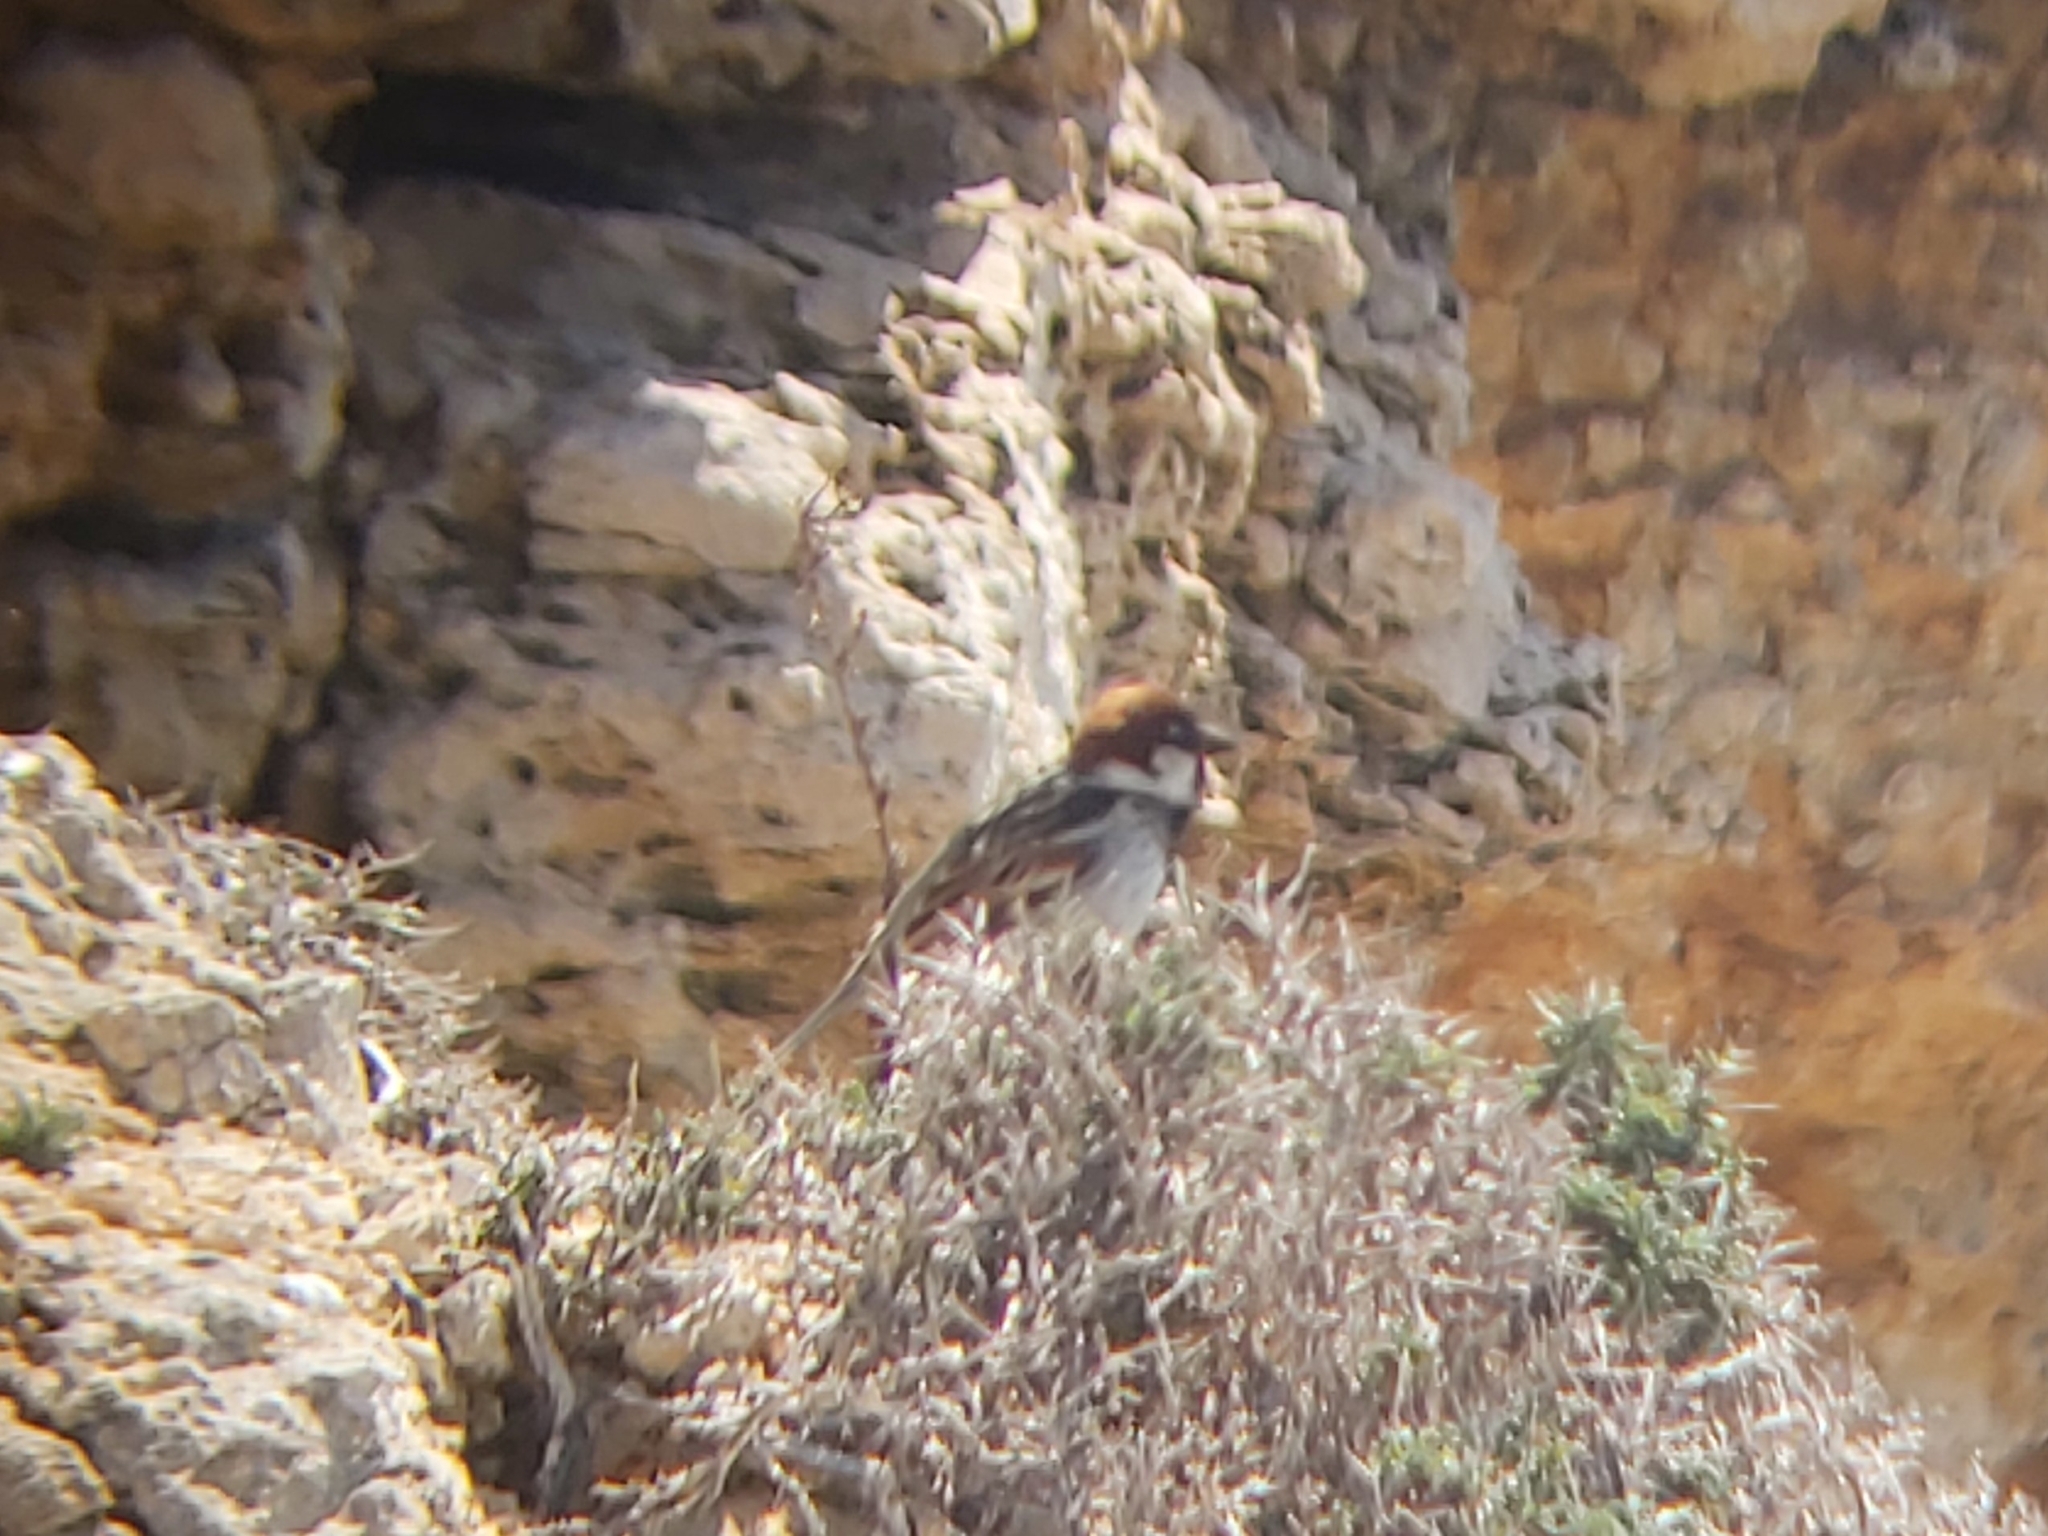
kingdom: Animalia
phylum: Chordata
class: Aves
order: Passeriformes
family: Passeridae
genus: Passer
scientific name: Passer italiae
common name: Italian sparrow
